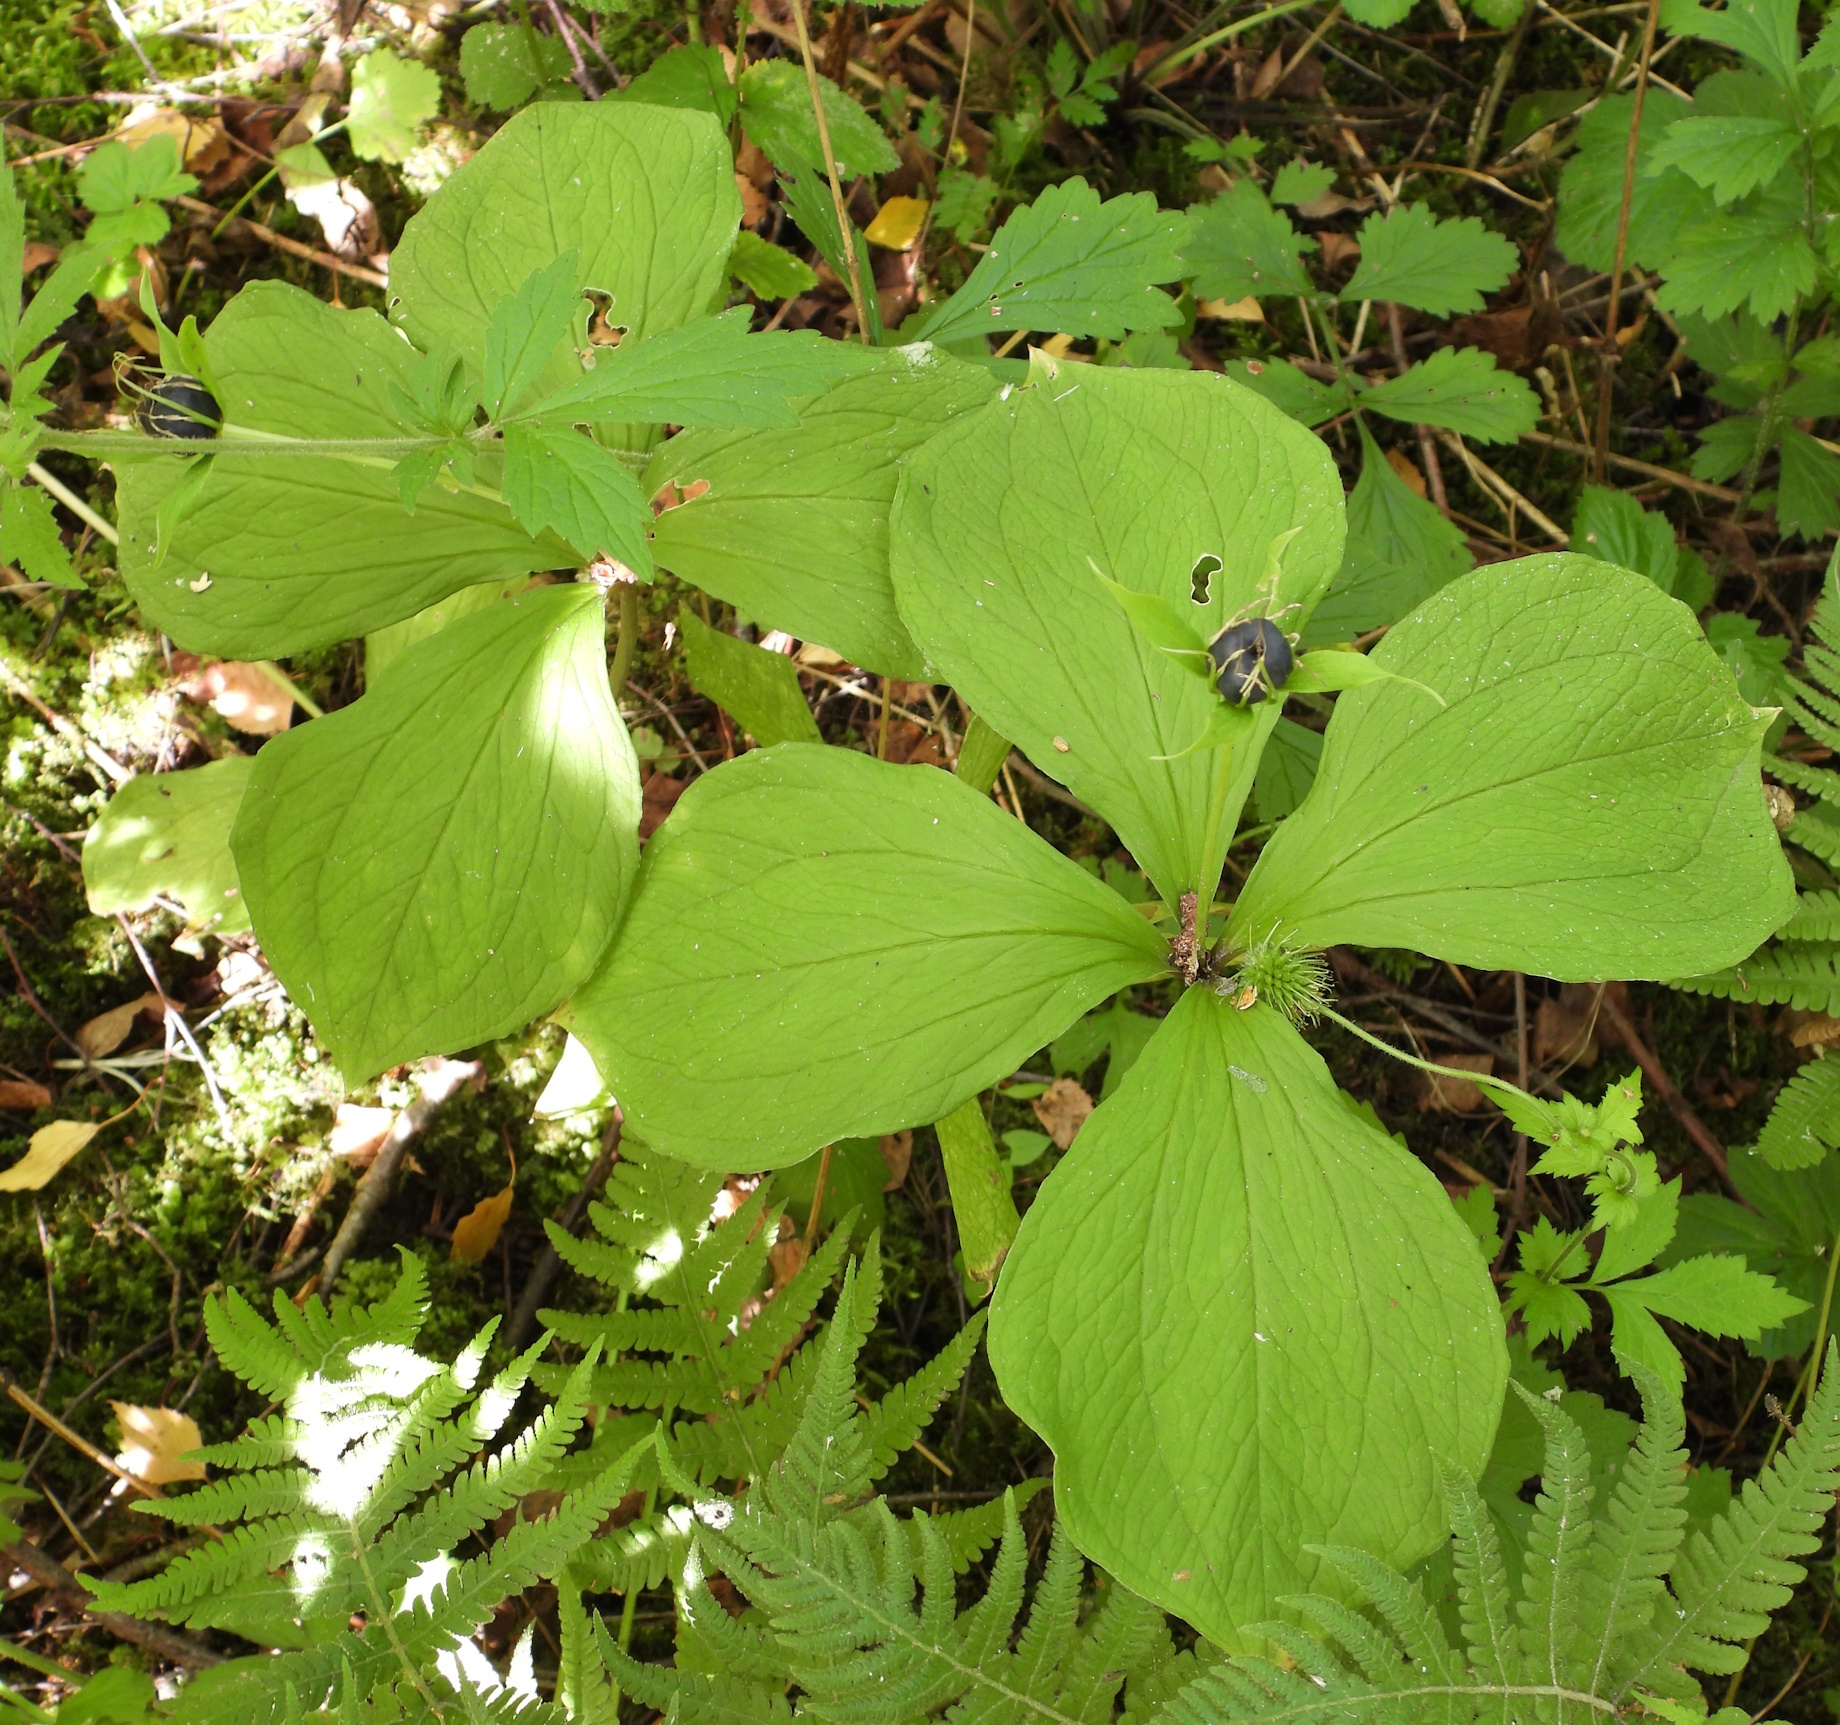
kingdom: Plantae
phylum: Tracheophyta
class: Liliopsida
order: Liliales
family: Melanthiaceae
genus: Paris
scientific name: Paris quadrifolia
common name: Herb-paris
